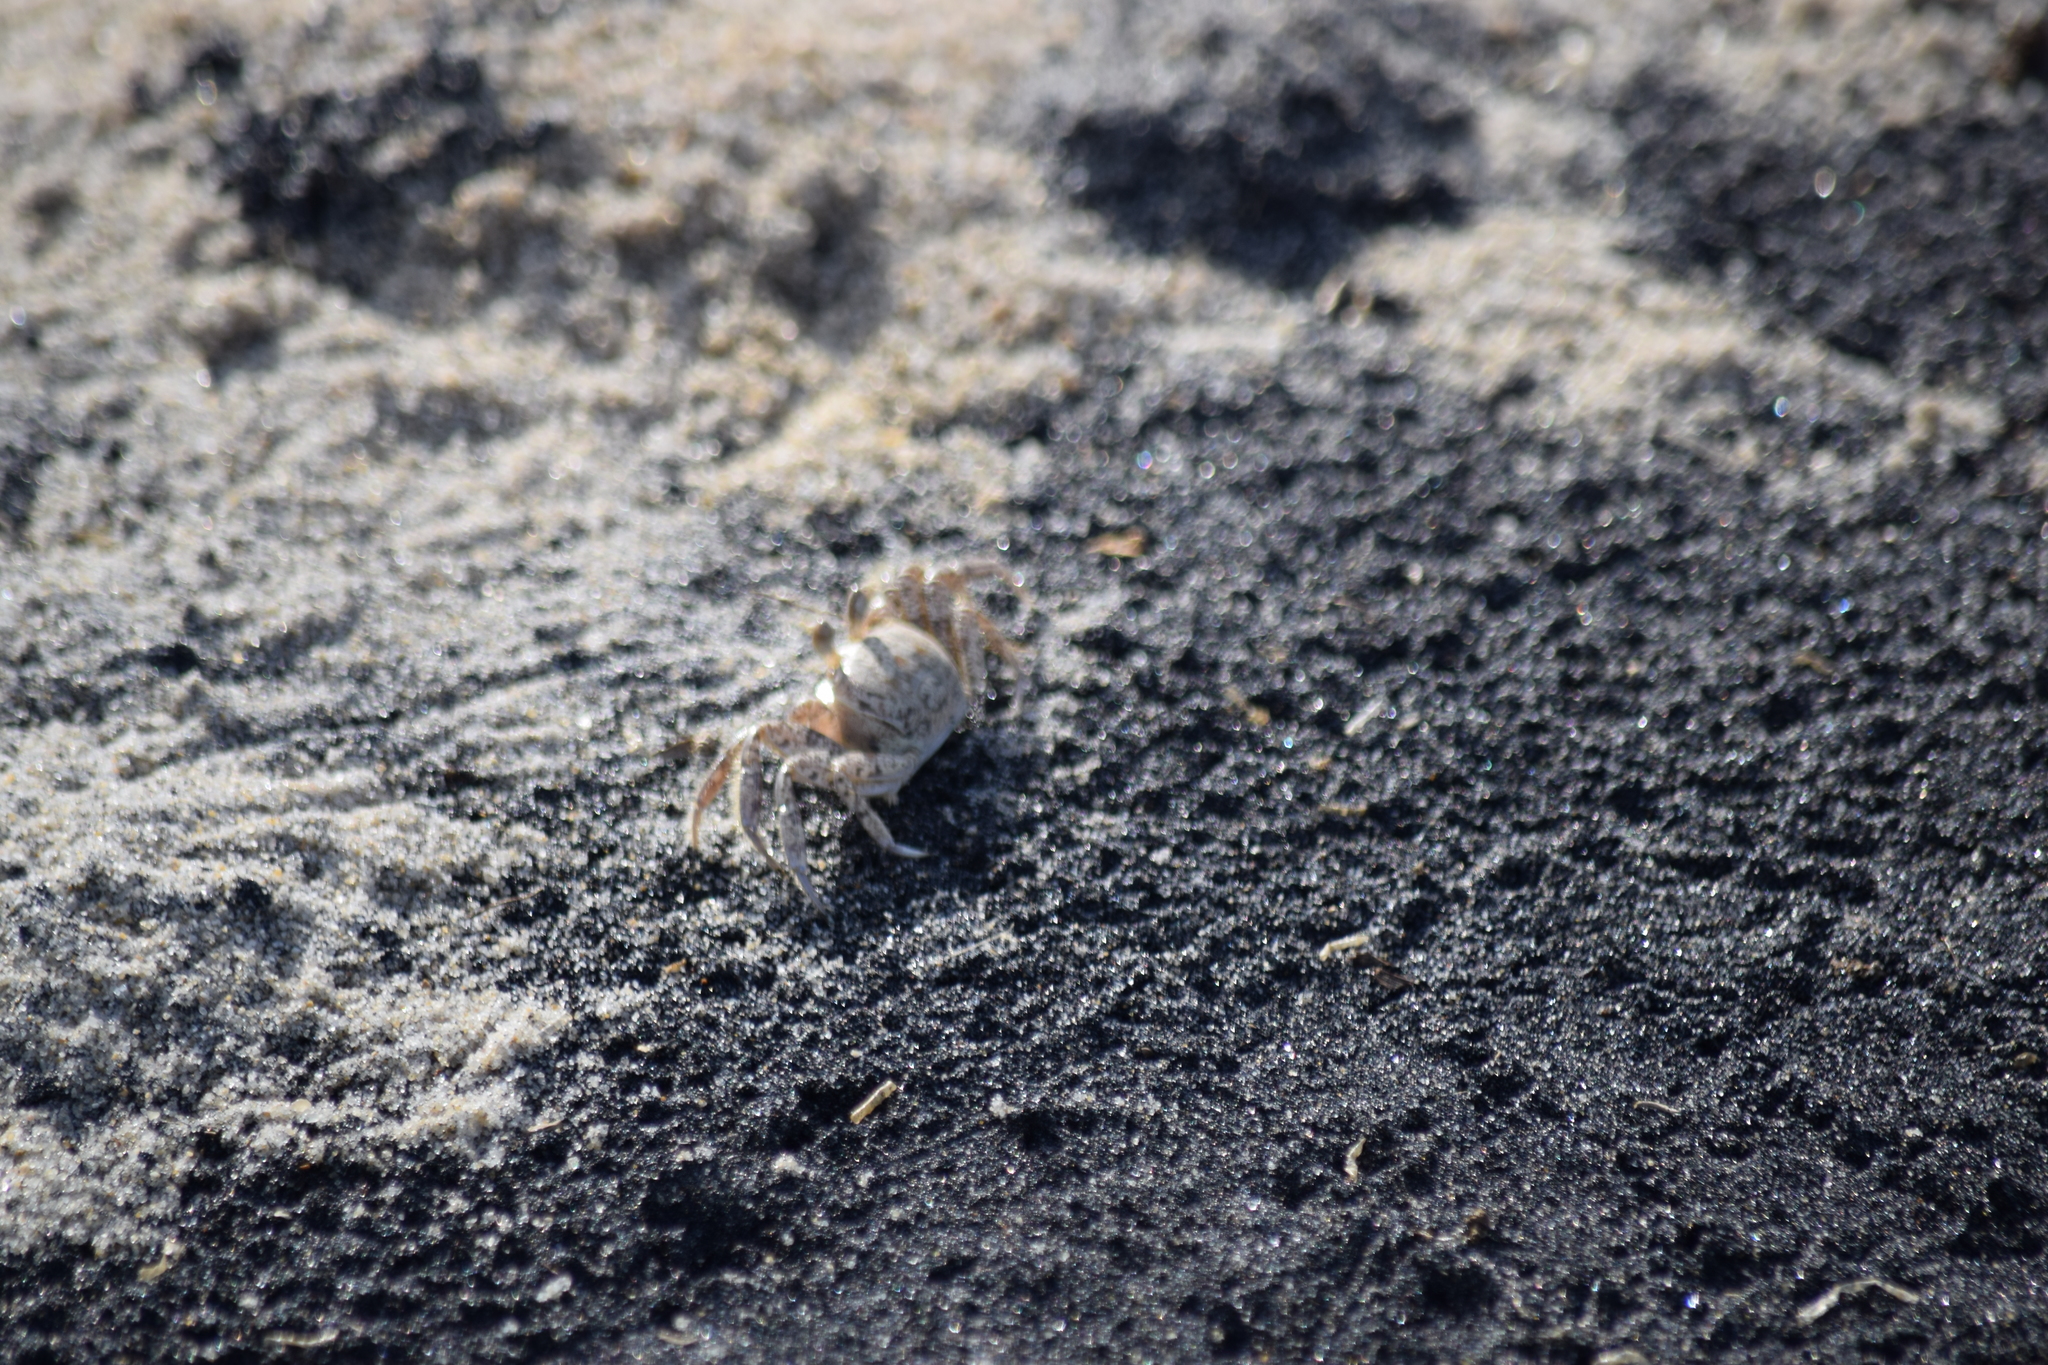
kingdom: Animalia
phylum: Arthropoda
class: Malacostraca
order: Decapoda
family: Ocypodidae
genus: Ocypode
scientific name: Ocypode quadrata
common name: Ghost crab
